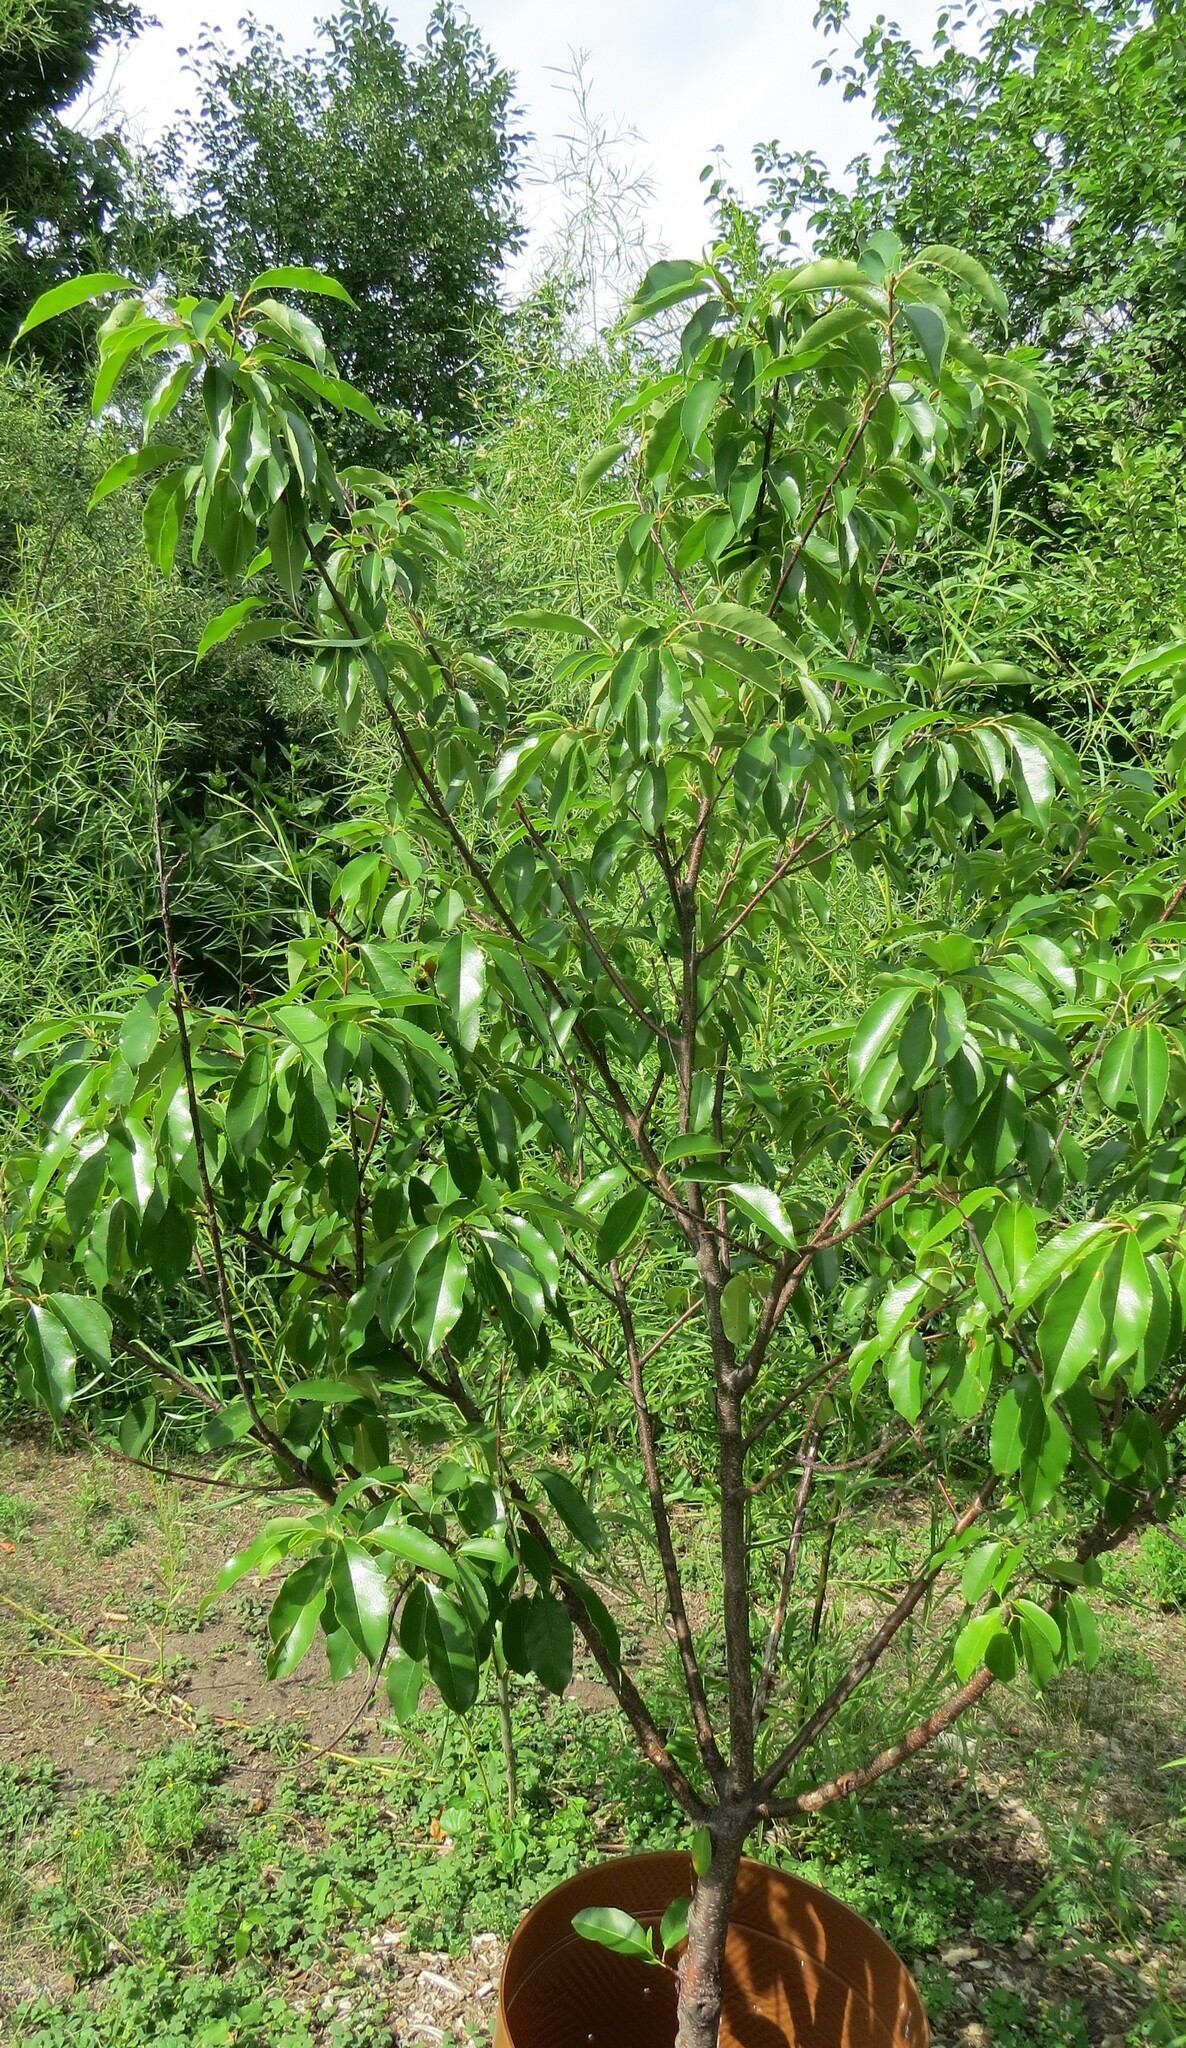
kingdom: Fungi
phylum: Ascomycota
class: Taphrinomycetes
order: Taphrinales
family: Taphrinaceae
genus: Taphrina
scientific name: Taphrina farlowii
